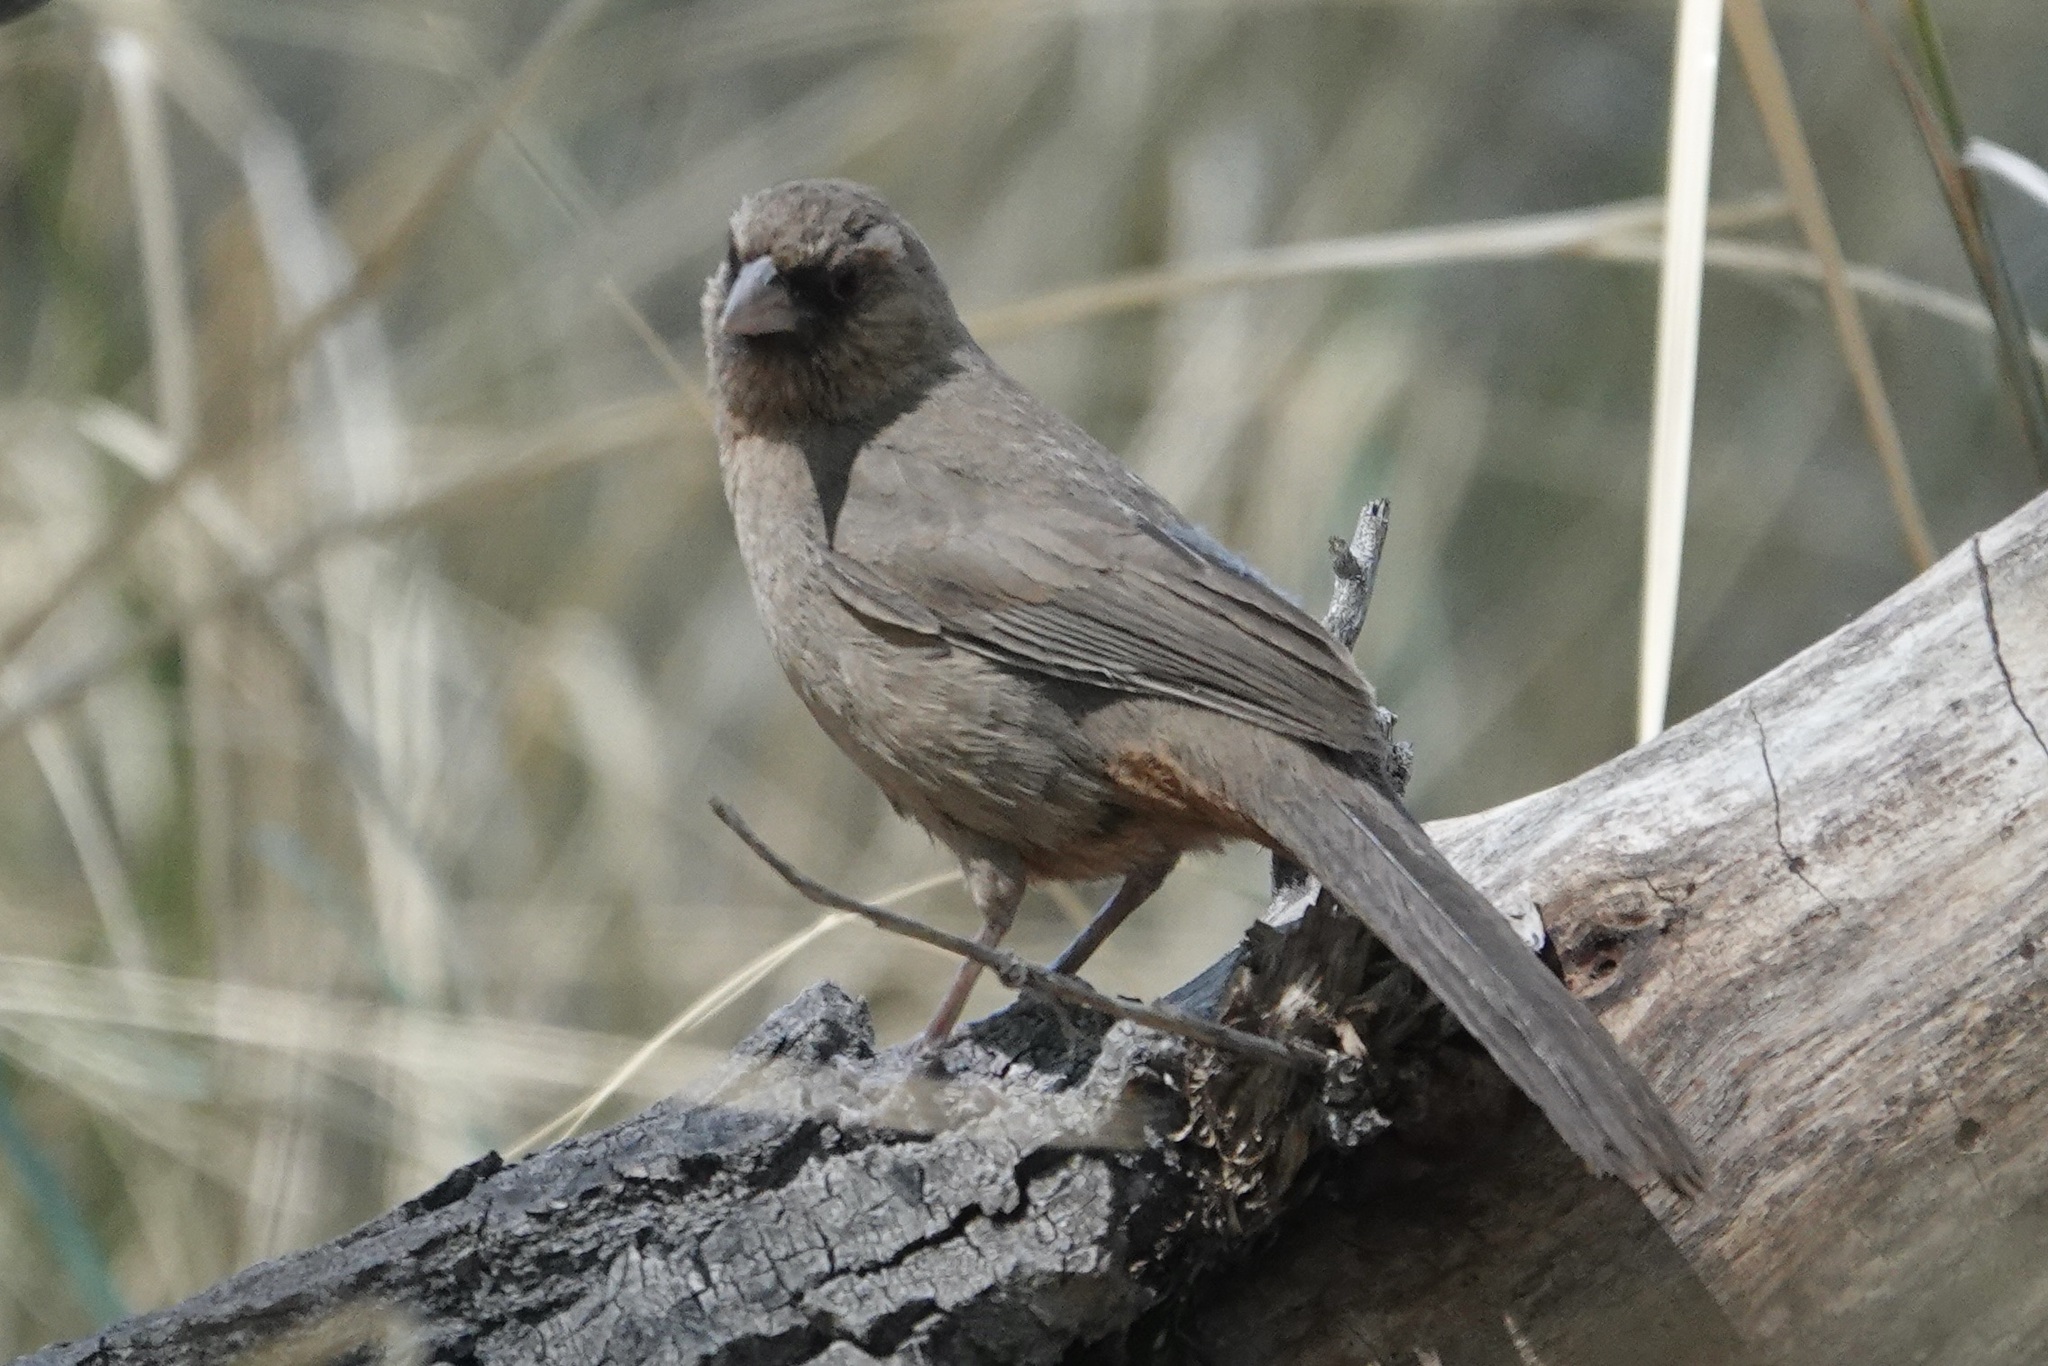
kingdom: Animalia
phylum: Chordata
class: Aves
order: Passeriformes
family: Passerellidae
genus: Melozone
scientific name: Melozone aberti
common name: Abert's towhee
